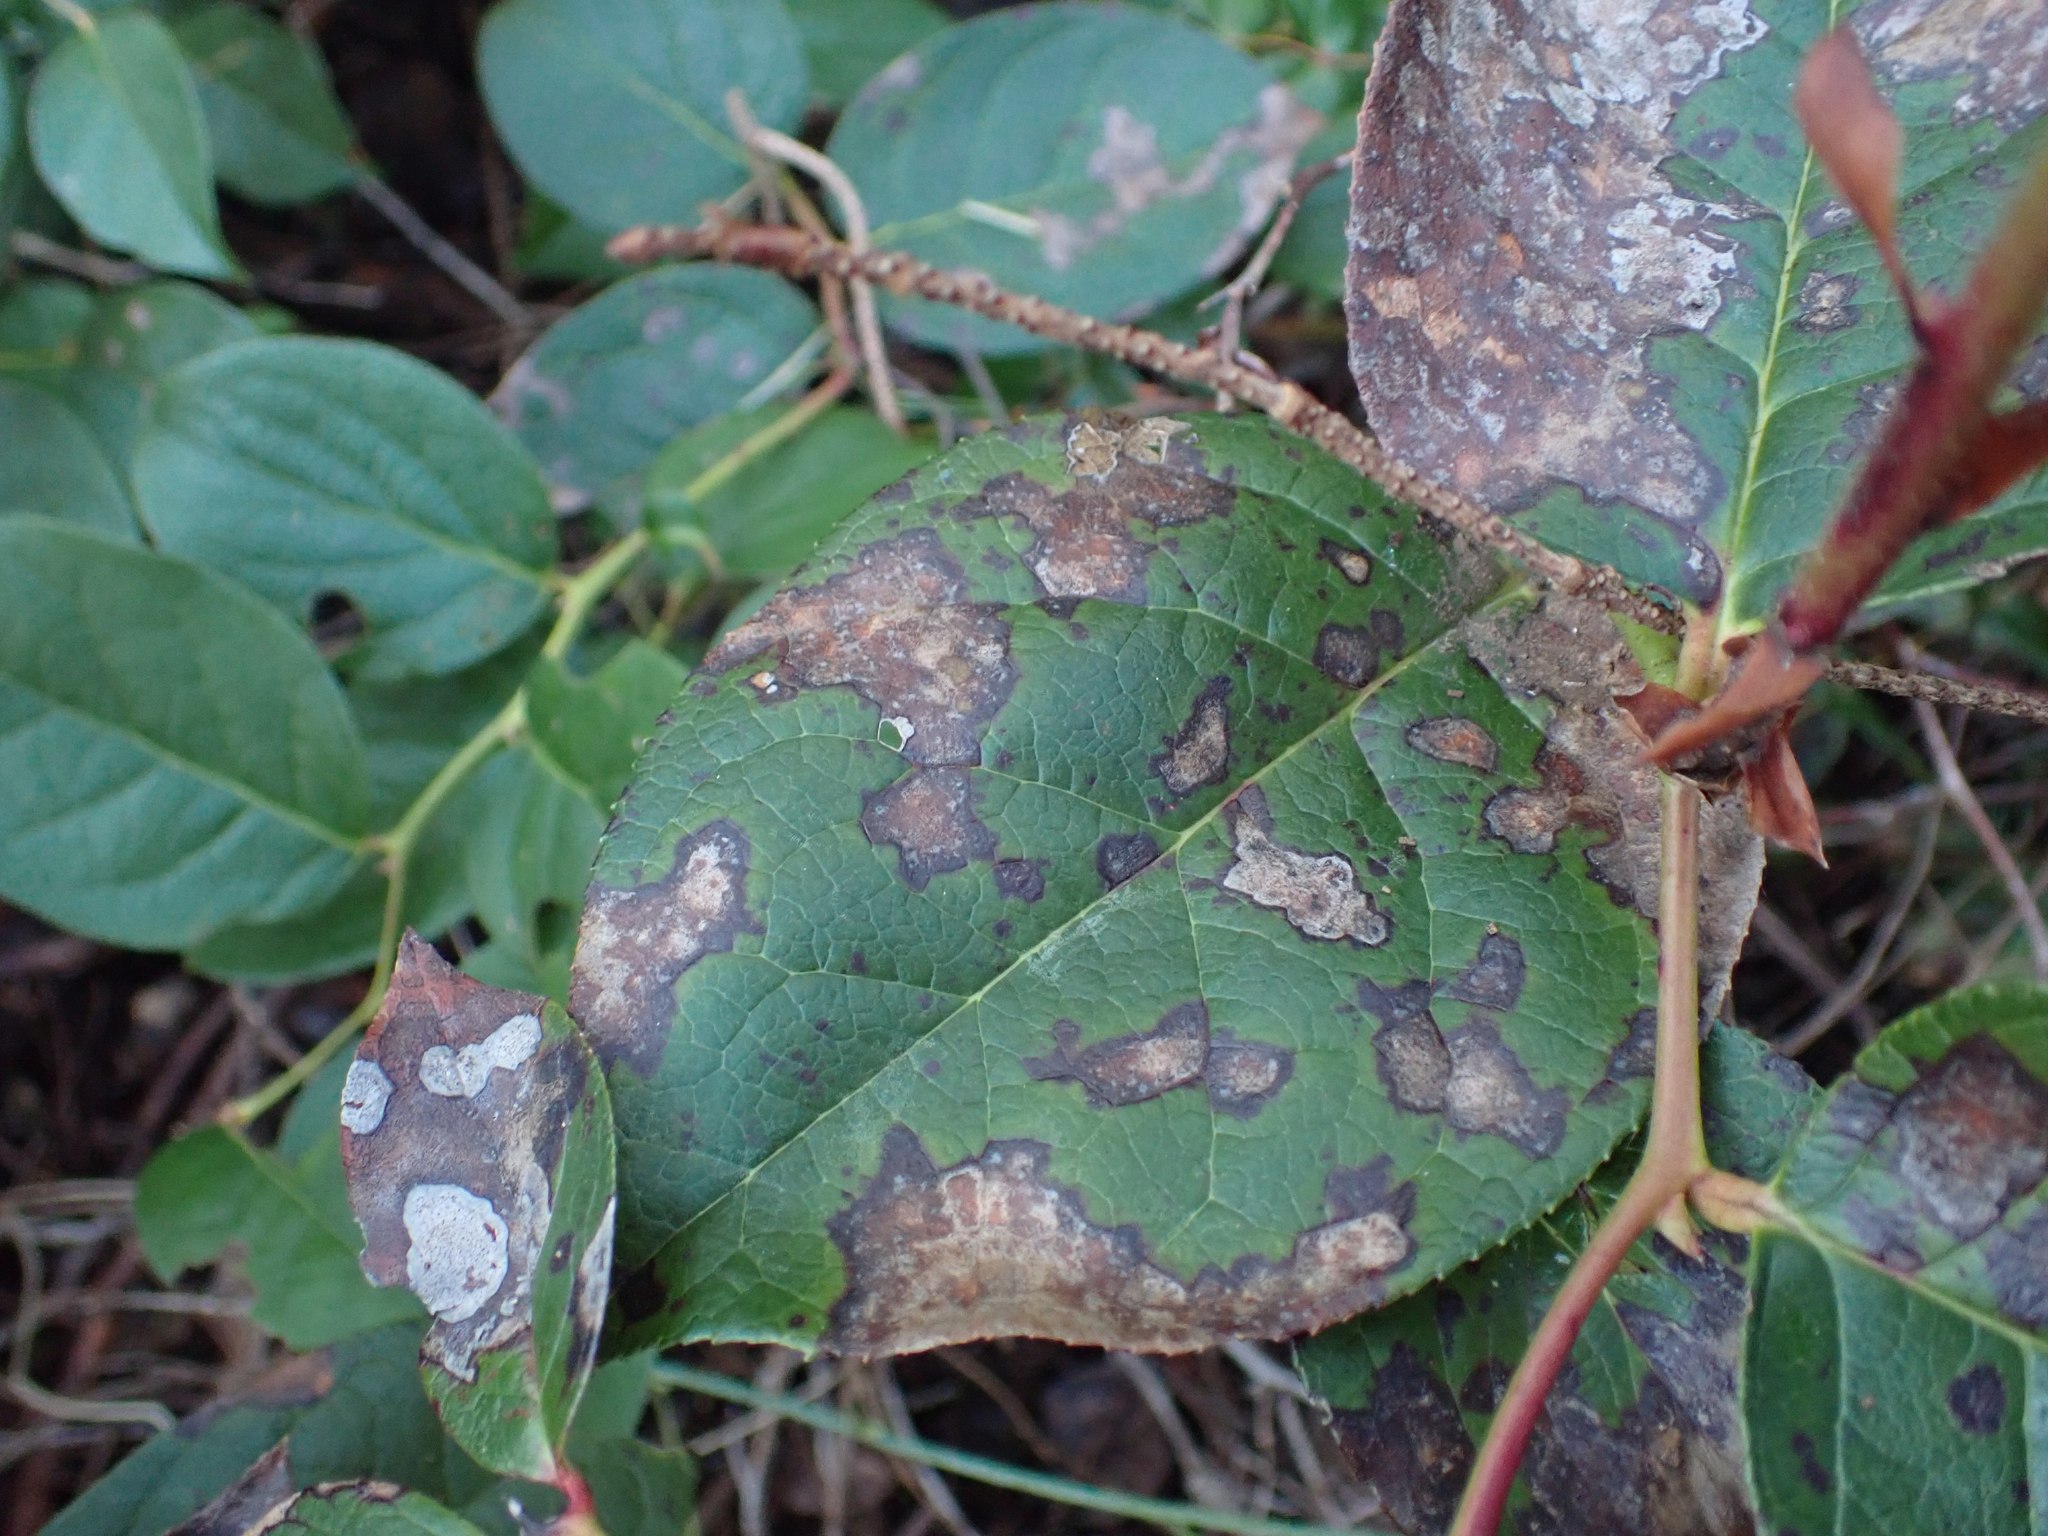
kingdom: Plantae
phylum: Tracheophyta
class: Magnoliopsida
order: Ericales
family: Ericaceae
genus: Gaultheria
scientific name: Gaultheria shallon
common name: Shallon
